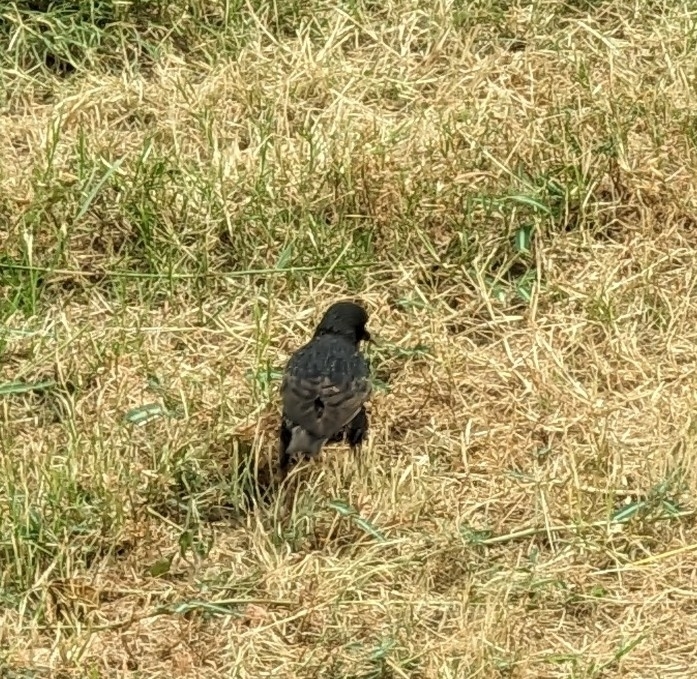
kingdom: Animalia
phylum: Chordata
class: Aves
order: Passeriformes
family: Sturnidae
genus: Sturnus
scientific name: Sturnus vulgaris
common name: Common starling
